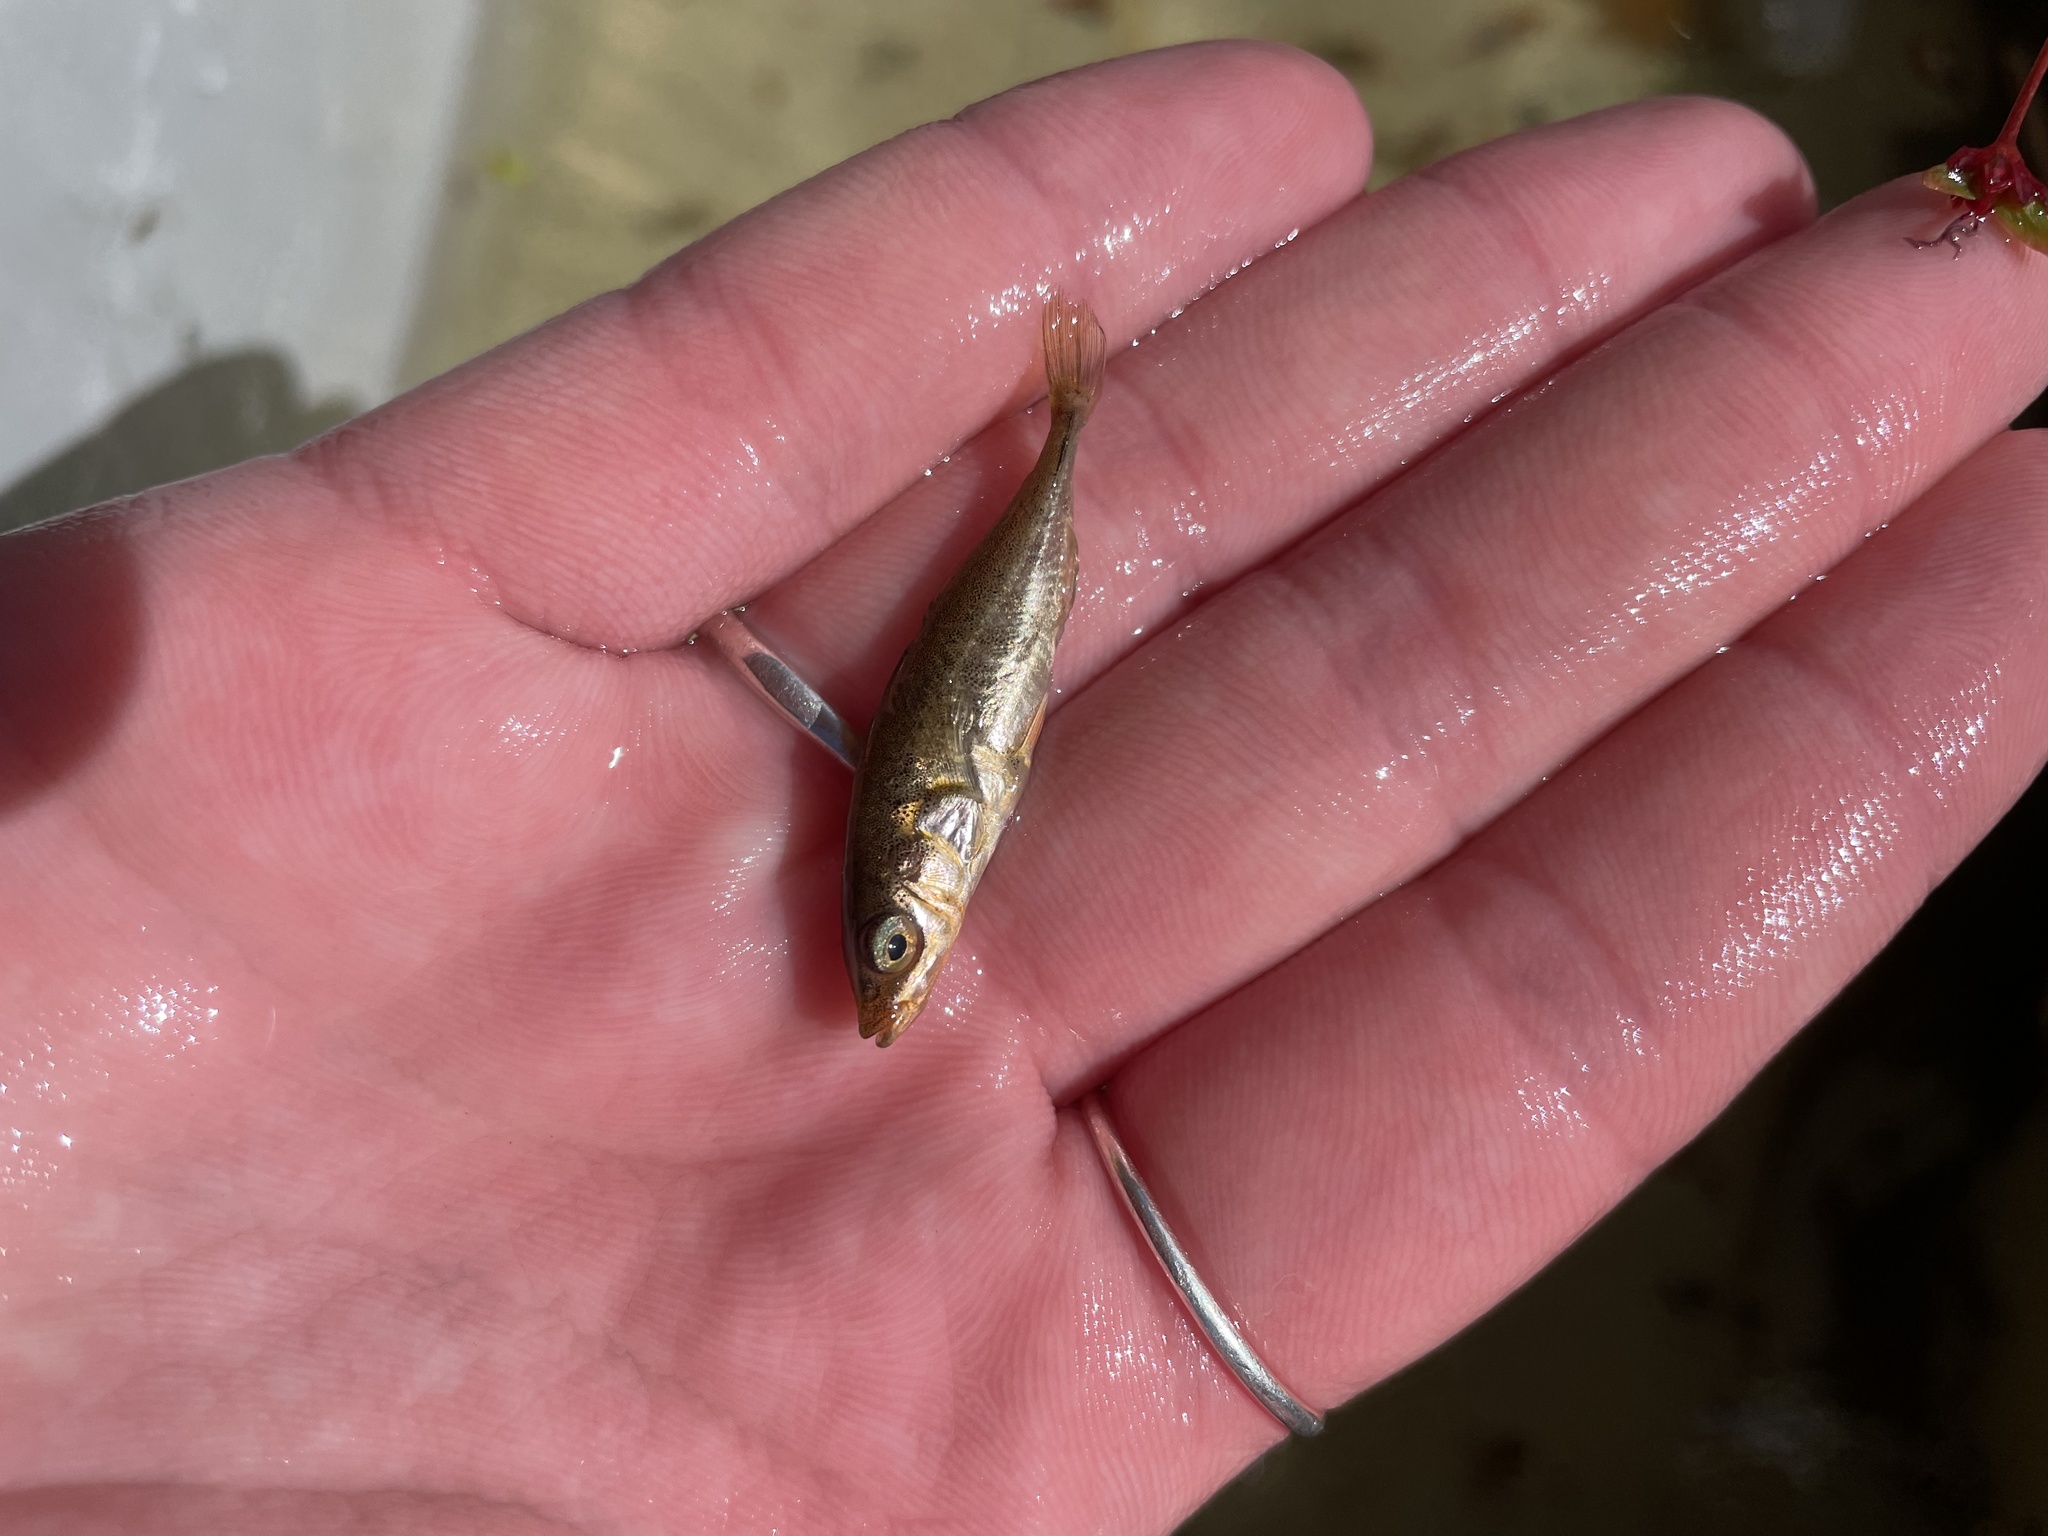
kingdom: Animalia
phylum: Chordata
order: Gasterosteiformes
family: Gasterosteidae
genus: Gasterosteus
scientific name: Gasterosteus aculeatus
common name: Three-spined stickleback
